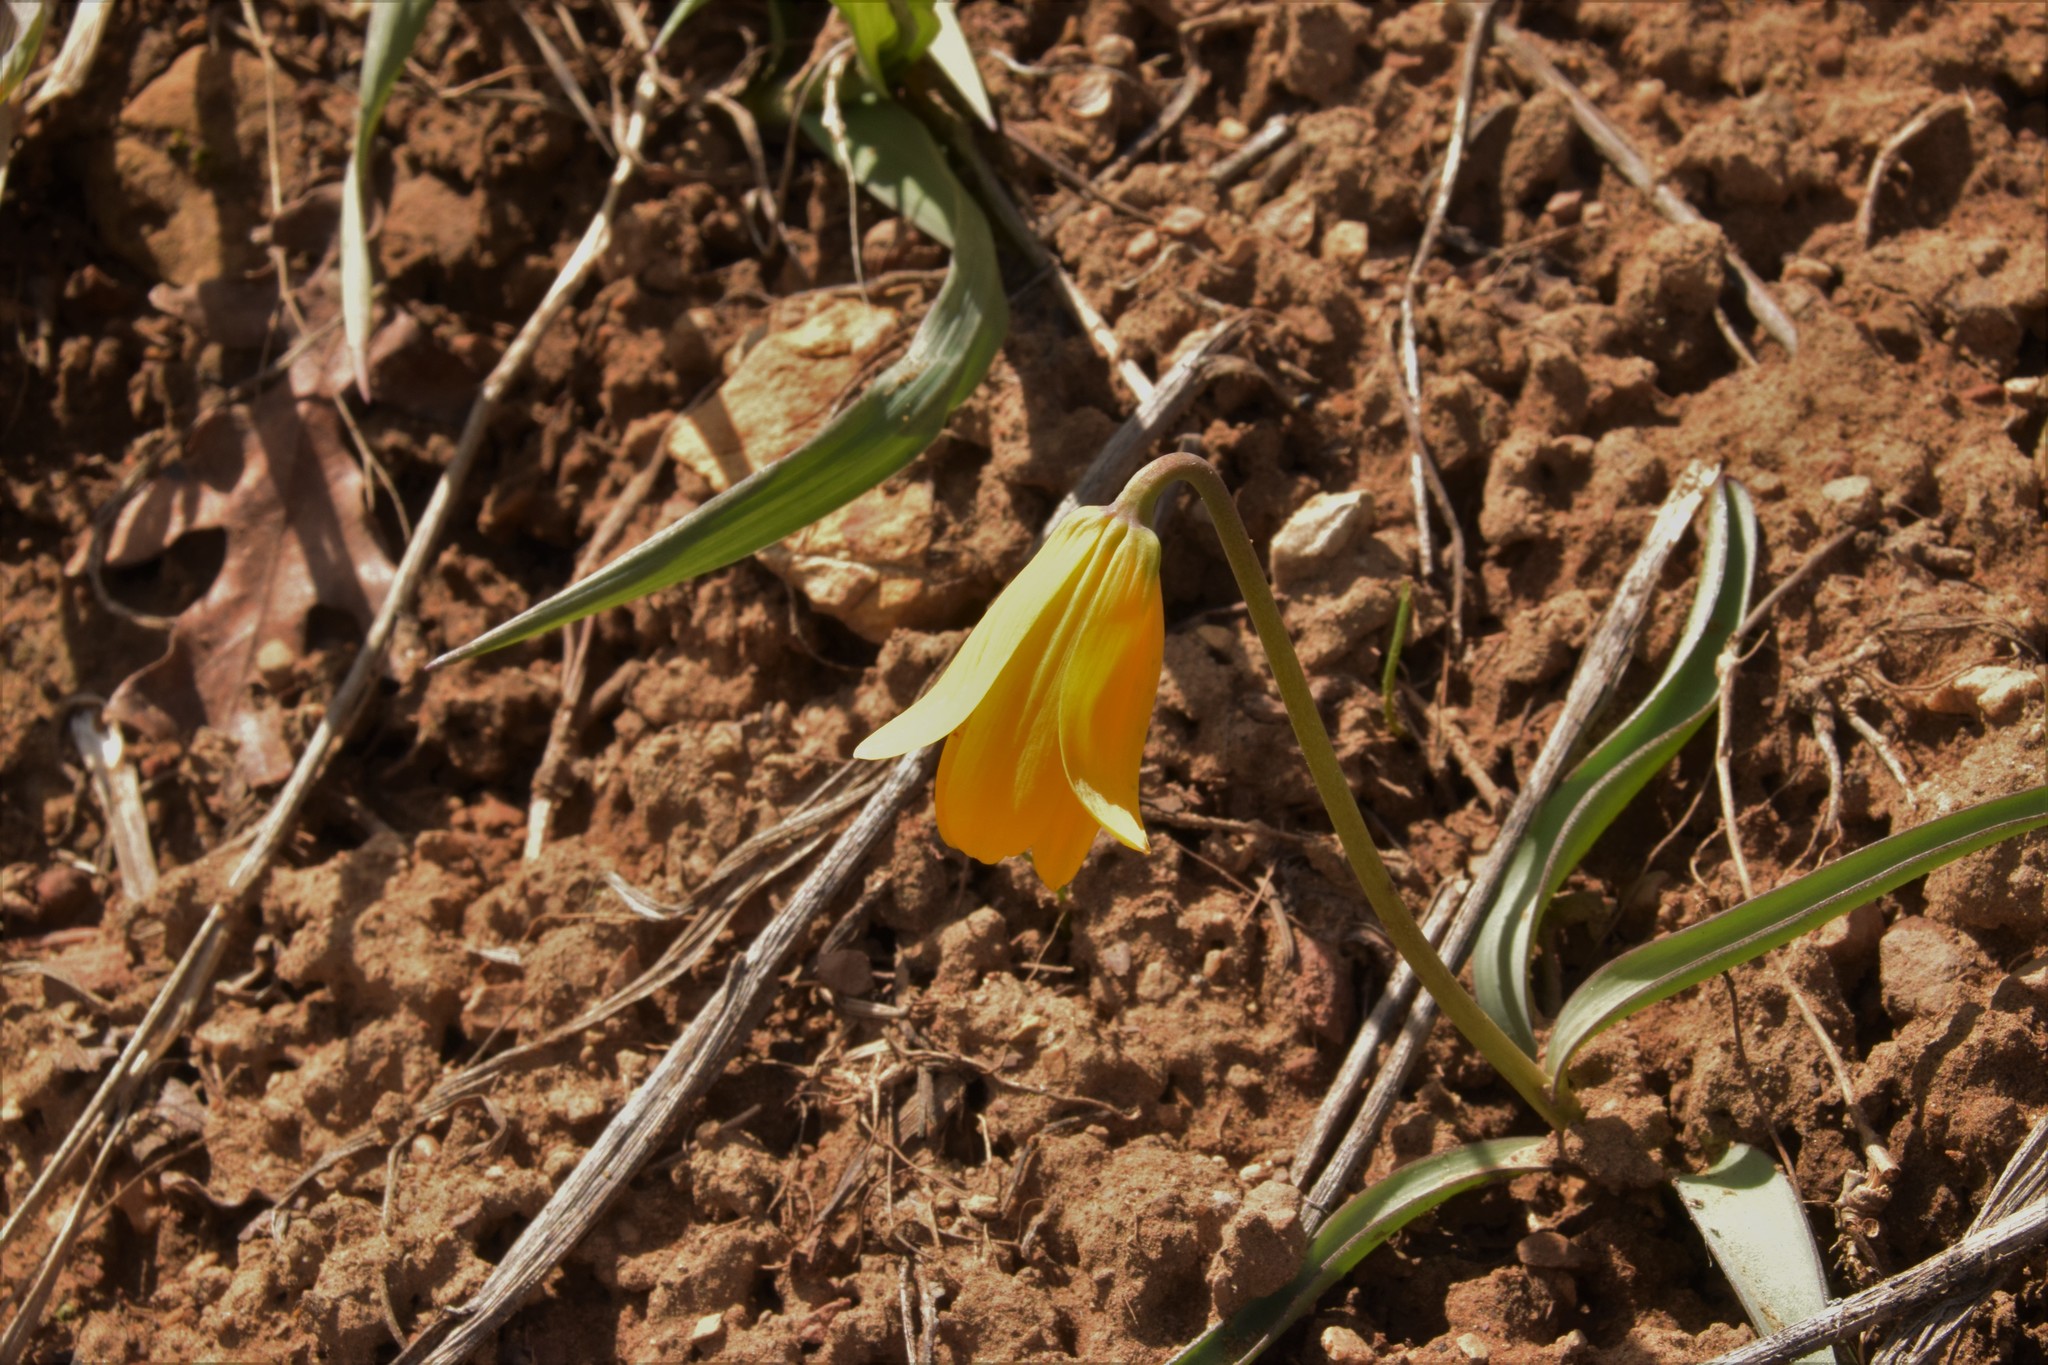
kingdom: Plantae
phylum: Tracheophyta
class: Liliopsida
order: Liliales
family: Liliaceae
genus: Fritillaria
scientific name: Fritillaria pudica
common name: Yellow fritillary
